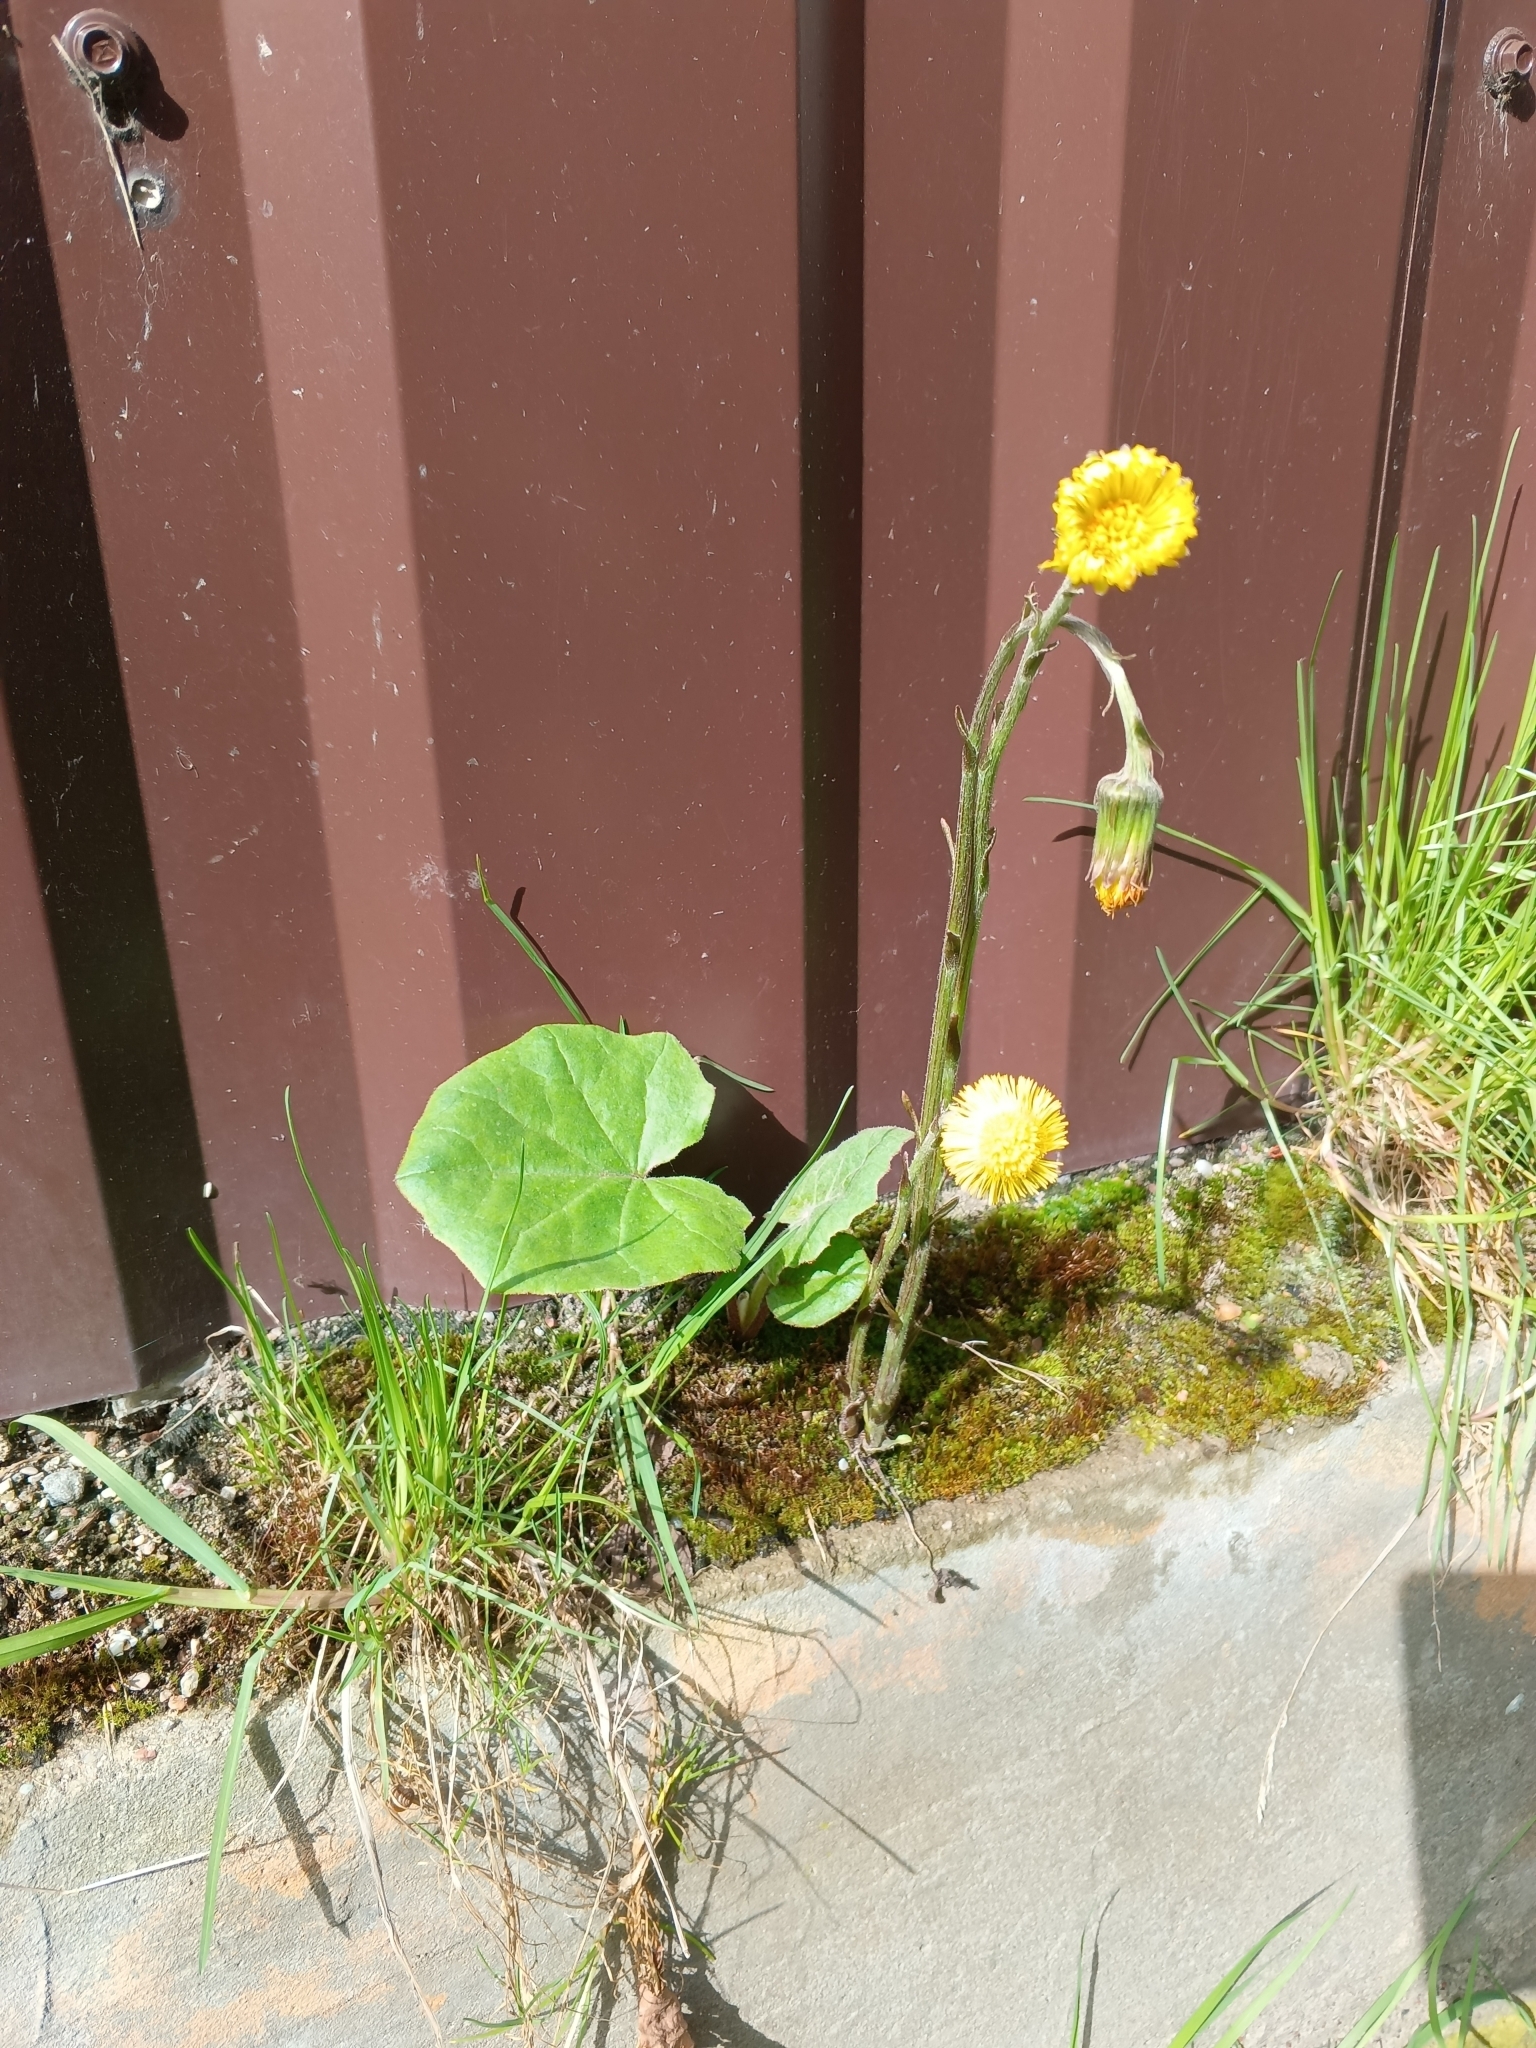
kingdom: Plantae
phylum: Tracheophyta
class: Magnoliopsida
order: Asterales
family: Asteraceae
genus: Tussilago
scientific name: Tussilago farfara
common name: Coltsfoot
